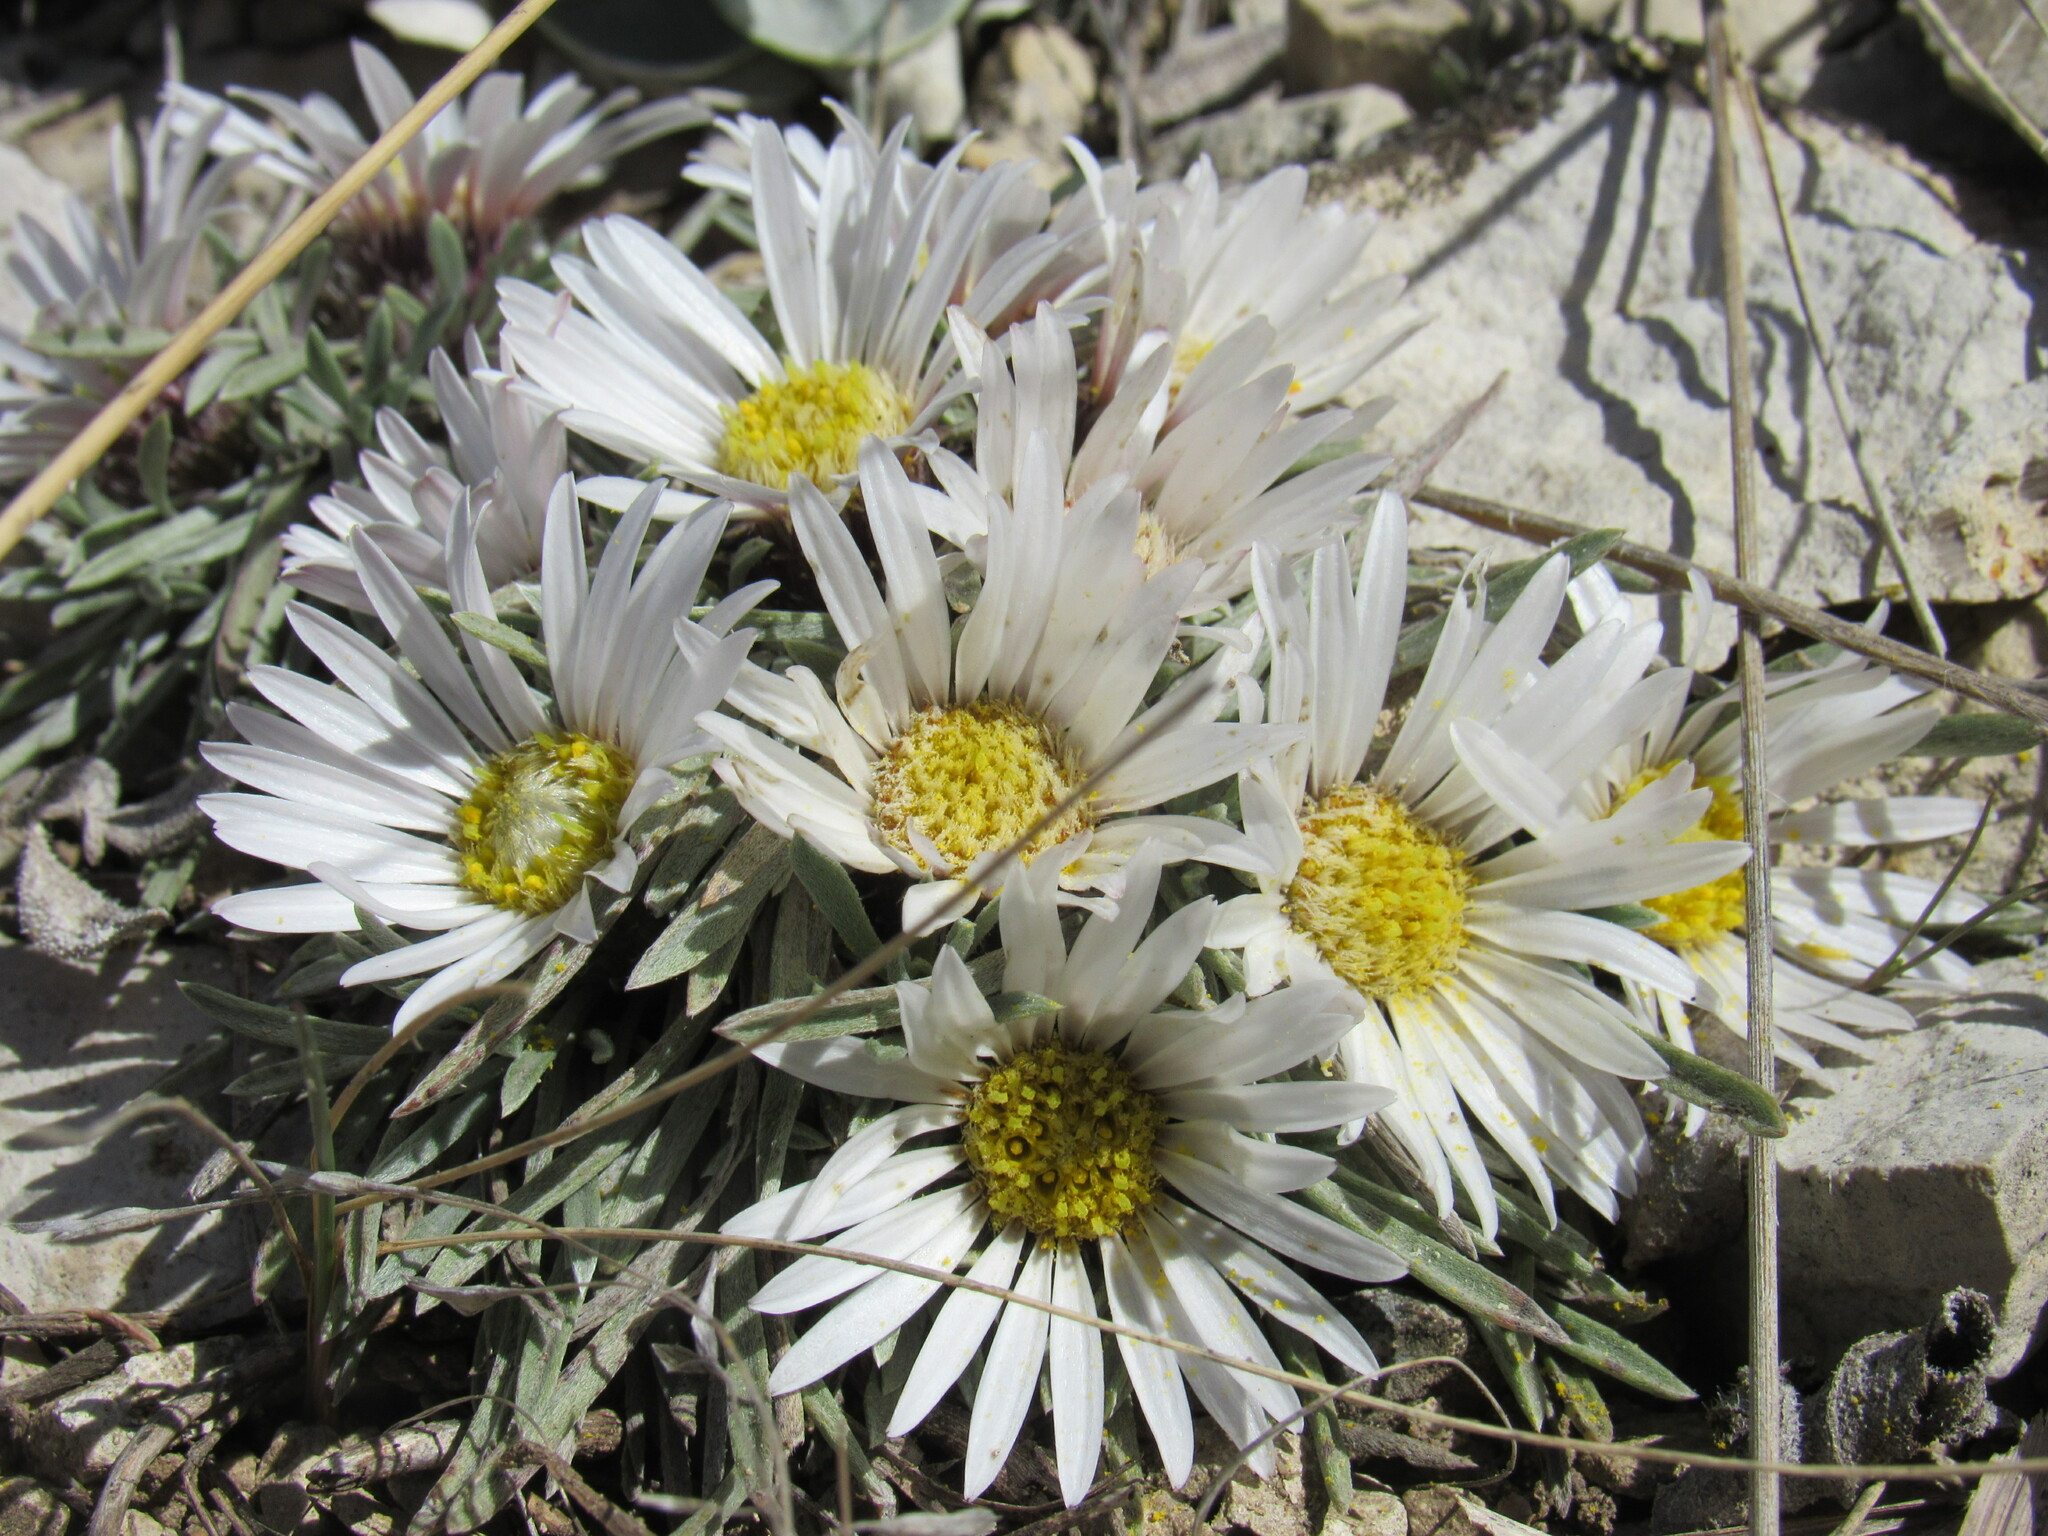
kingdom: Plantae
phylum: Tracheophyta
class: Magnoliopsida
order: Asterales
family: Asteraceae
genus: Townsendia
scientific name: Townsendia hookeri
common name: Hooker's townsend daisy
